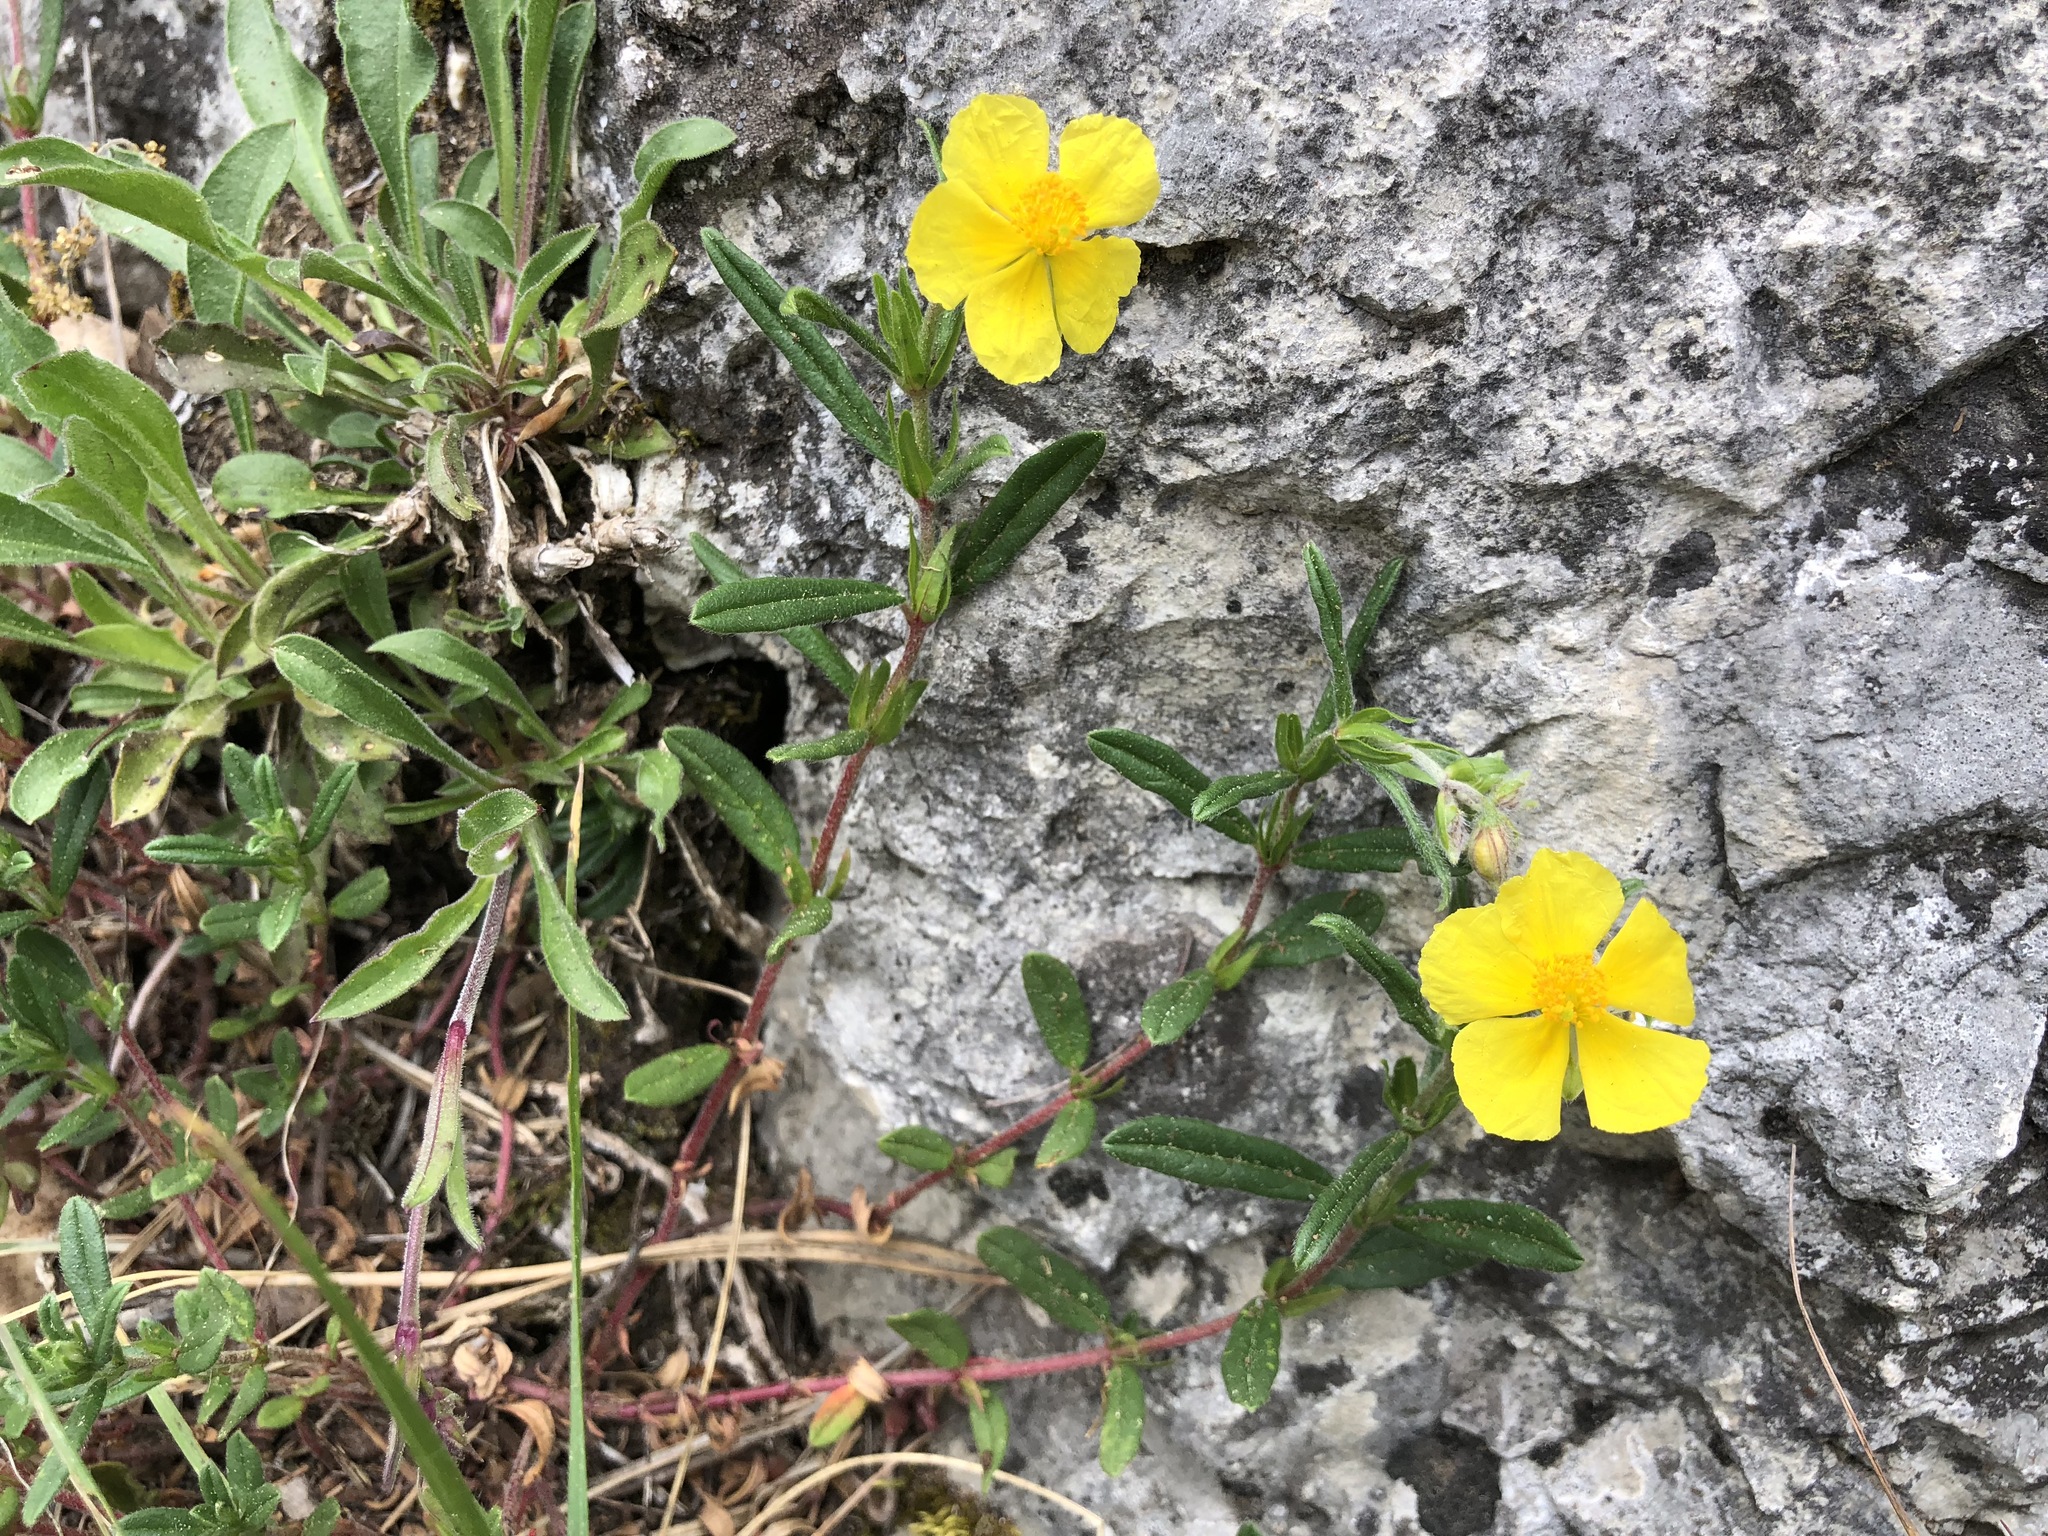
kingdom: Plantae
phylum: Tracheophyta
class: Magnoliopsida
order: Malvales
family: Cistaceae
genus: Helianthemum
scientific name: Helianthemum nummularium
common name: Common rock-rose
